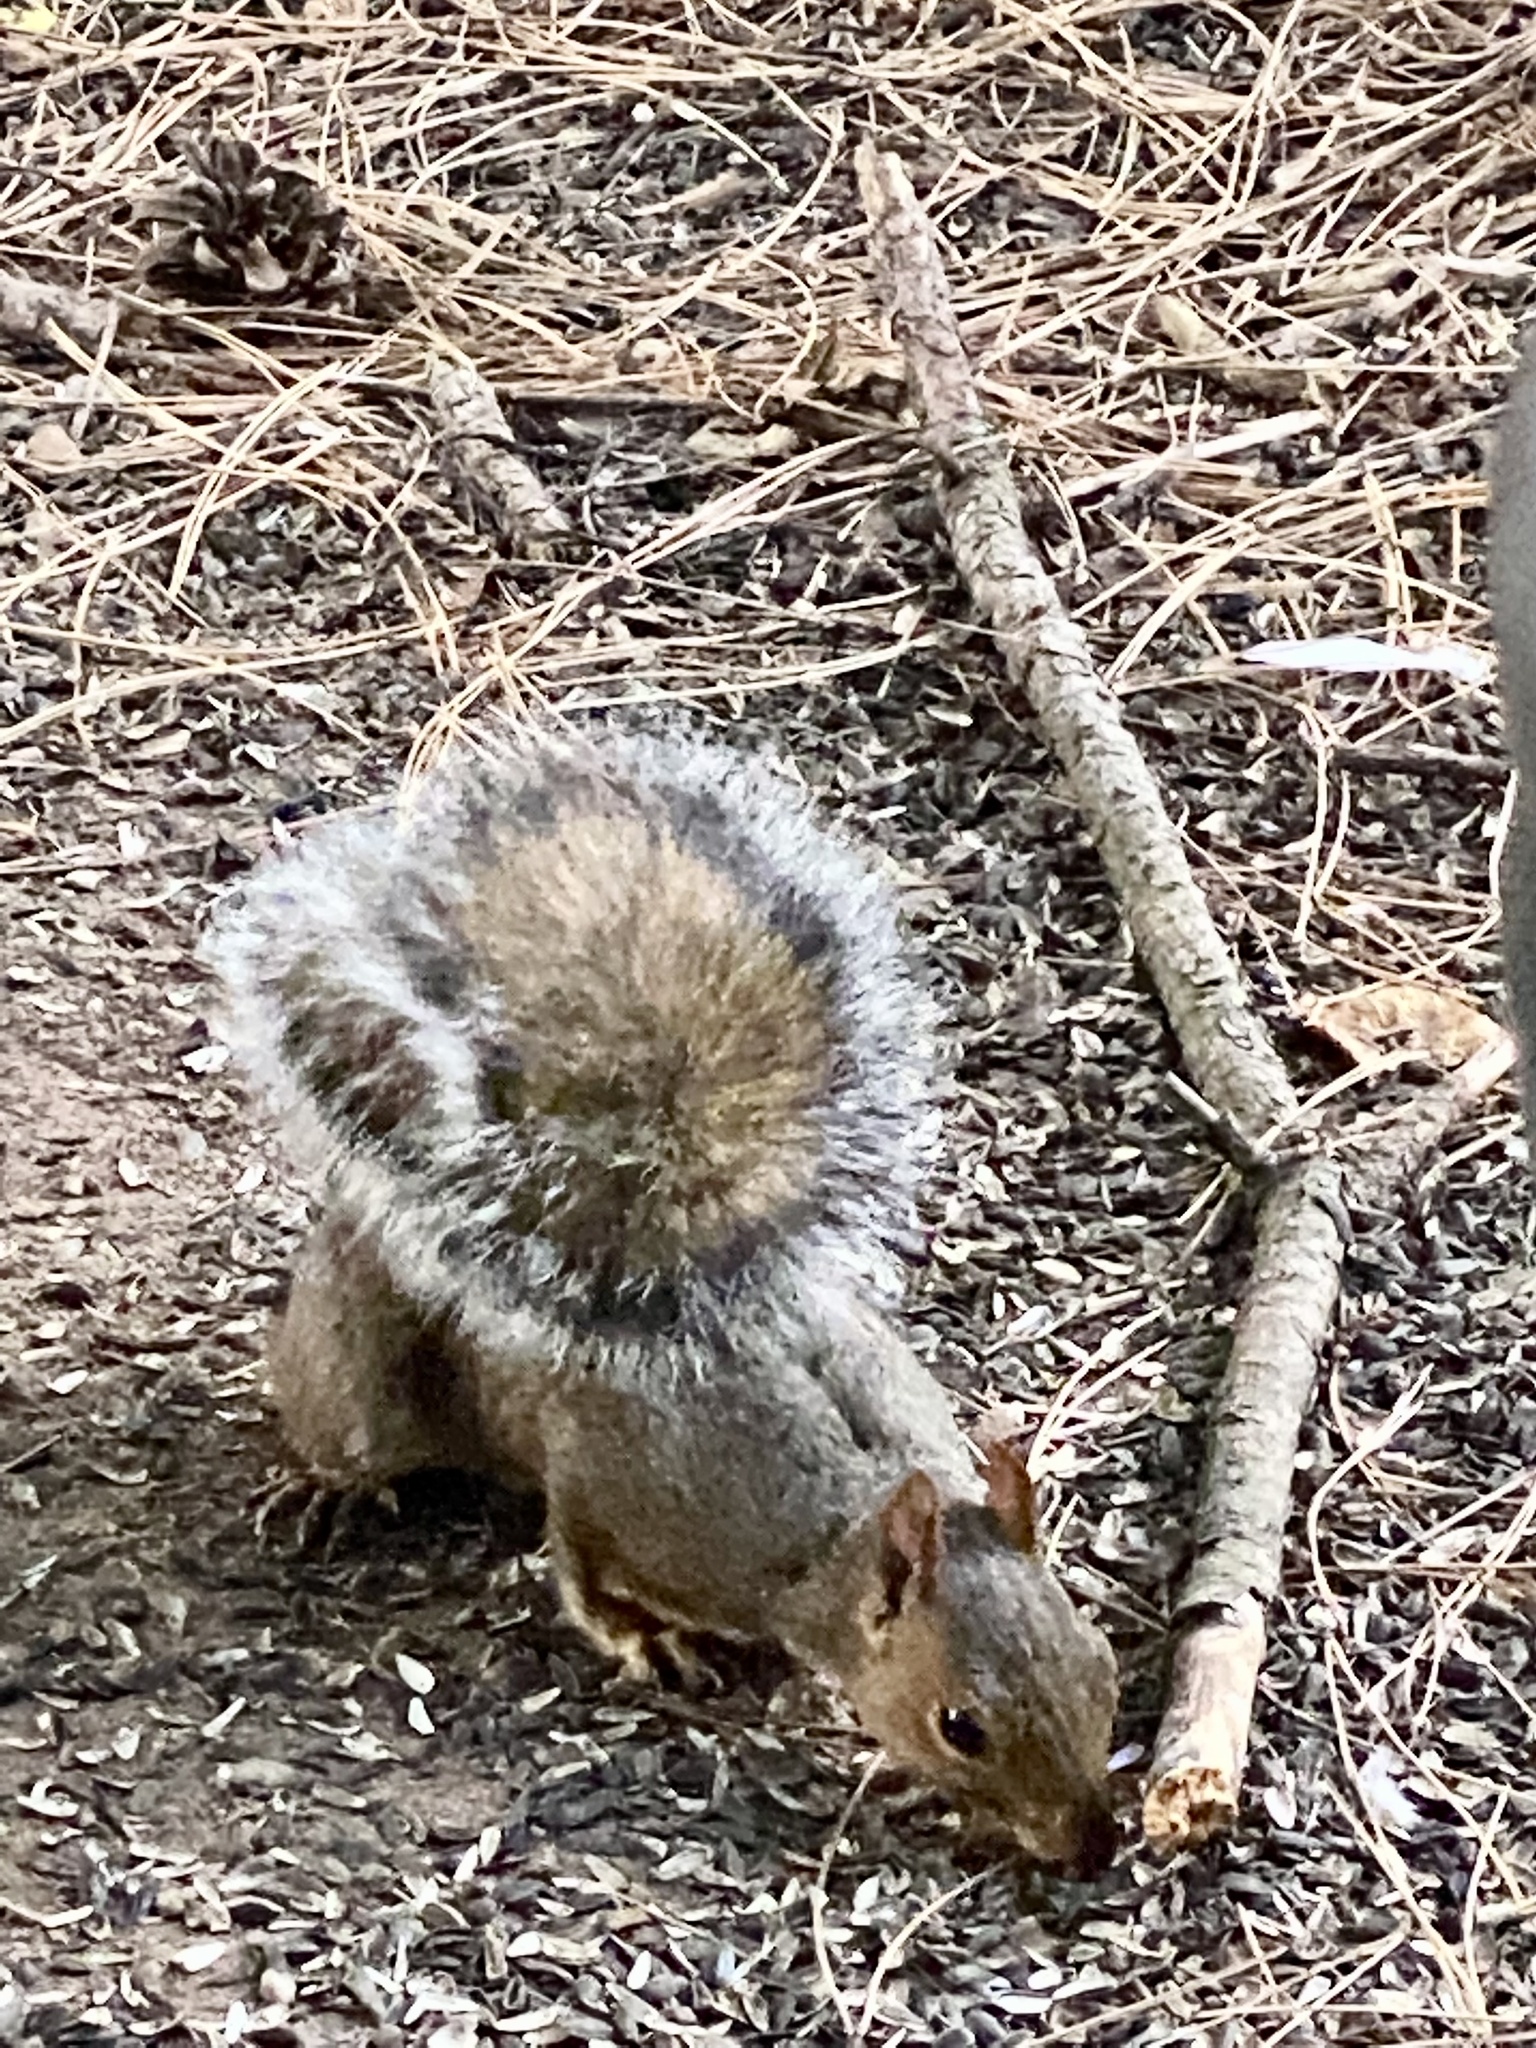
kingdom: Animalia
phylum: Chordata
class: Mammalia
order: Rodentia
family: Sciuridae
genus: Sciurus
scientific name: Sciurus carolinensis
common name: Eastern gray squirrel
